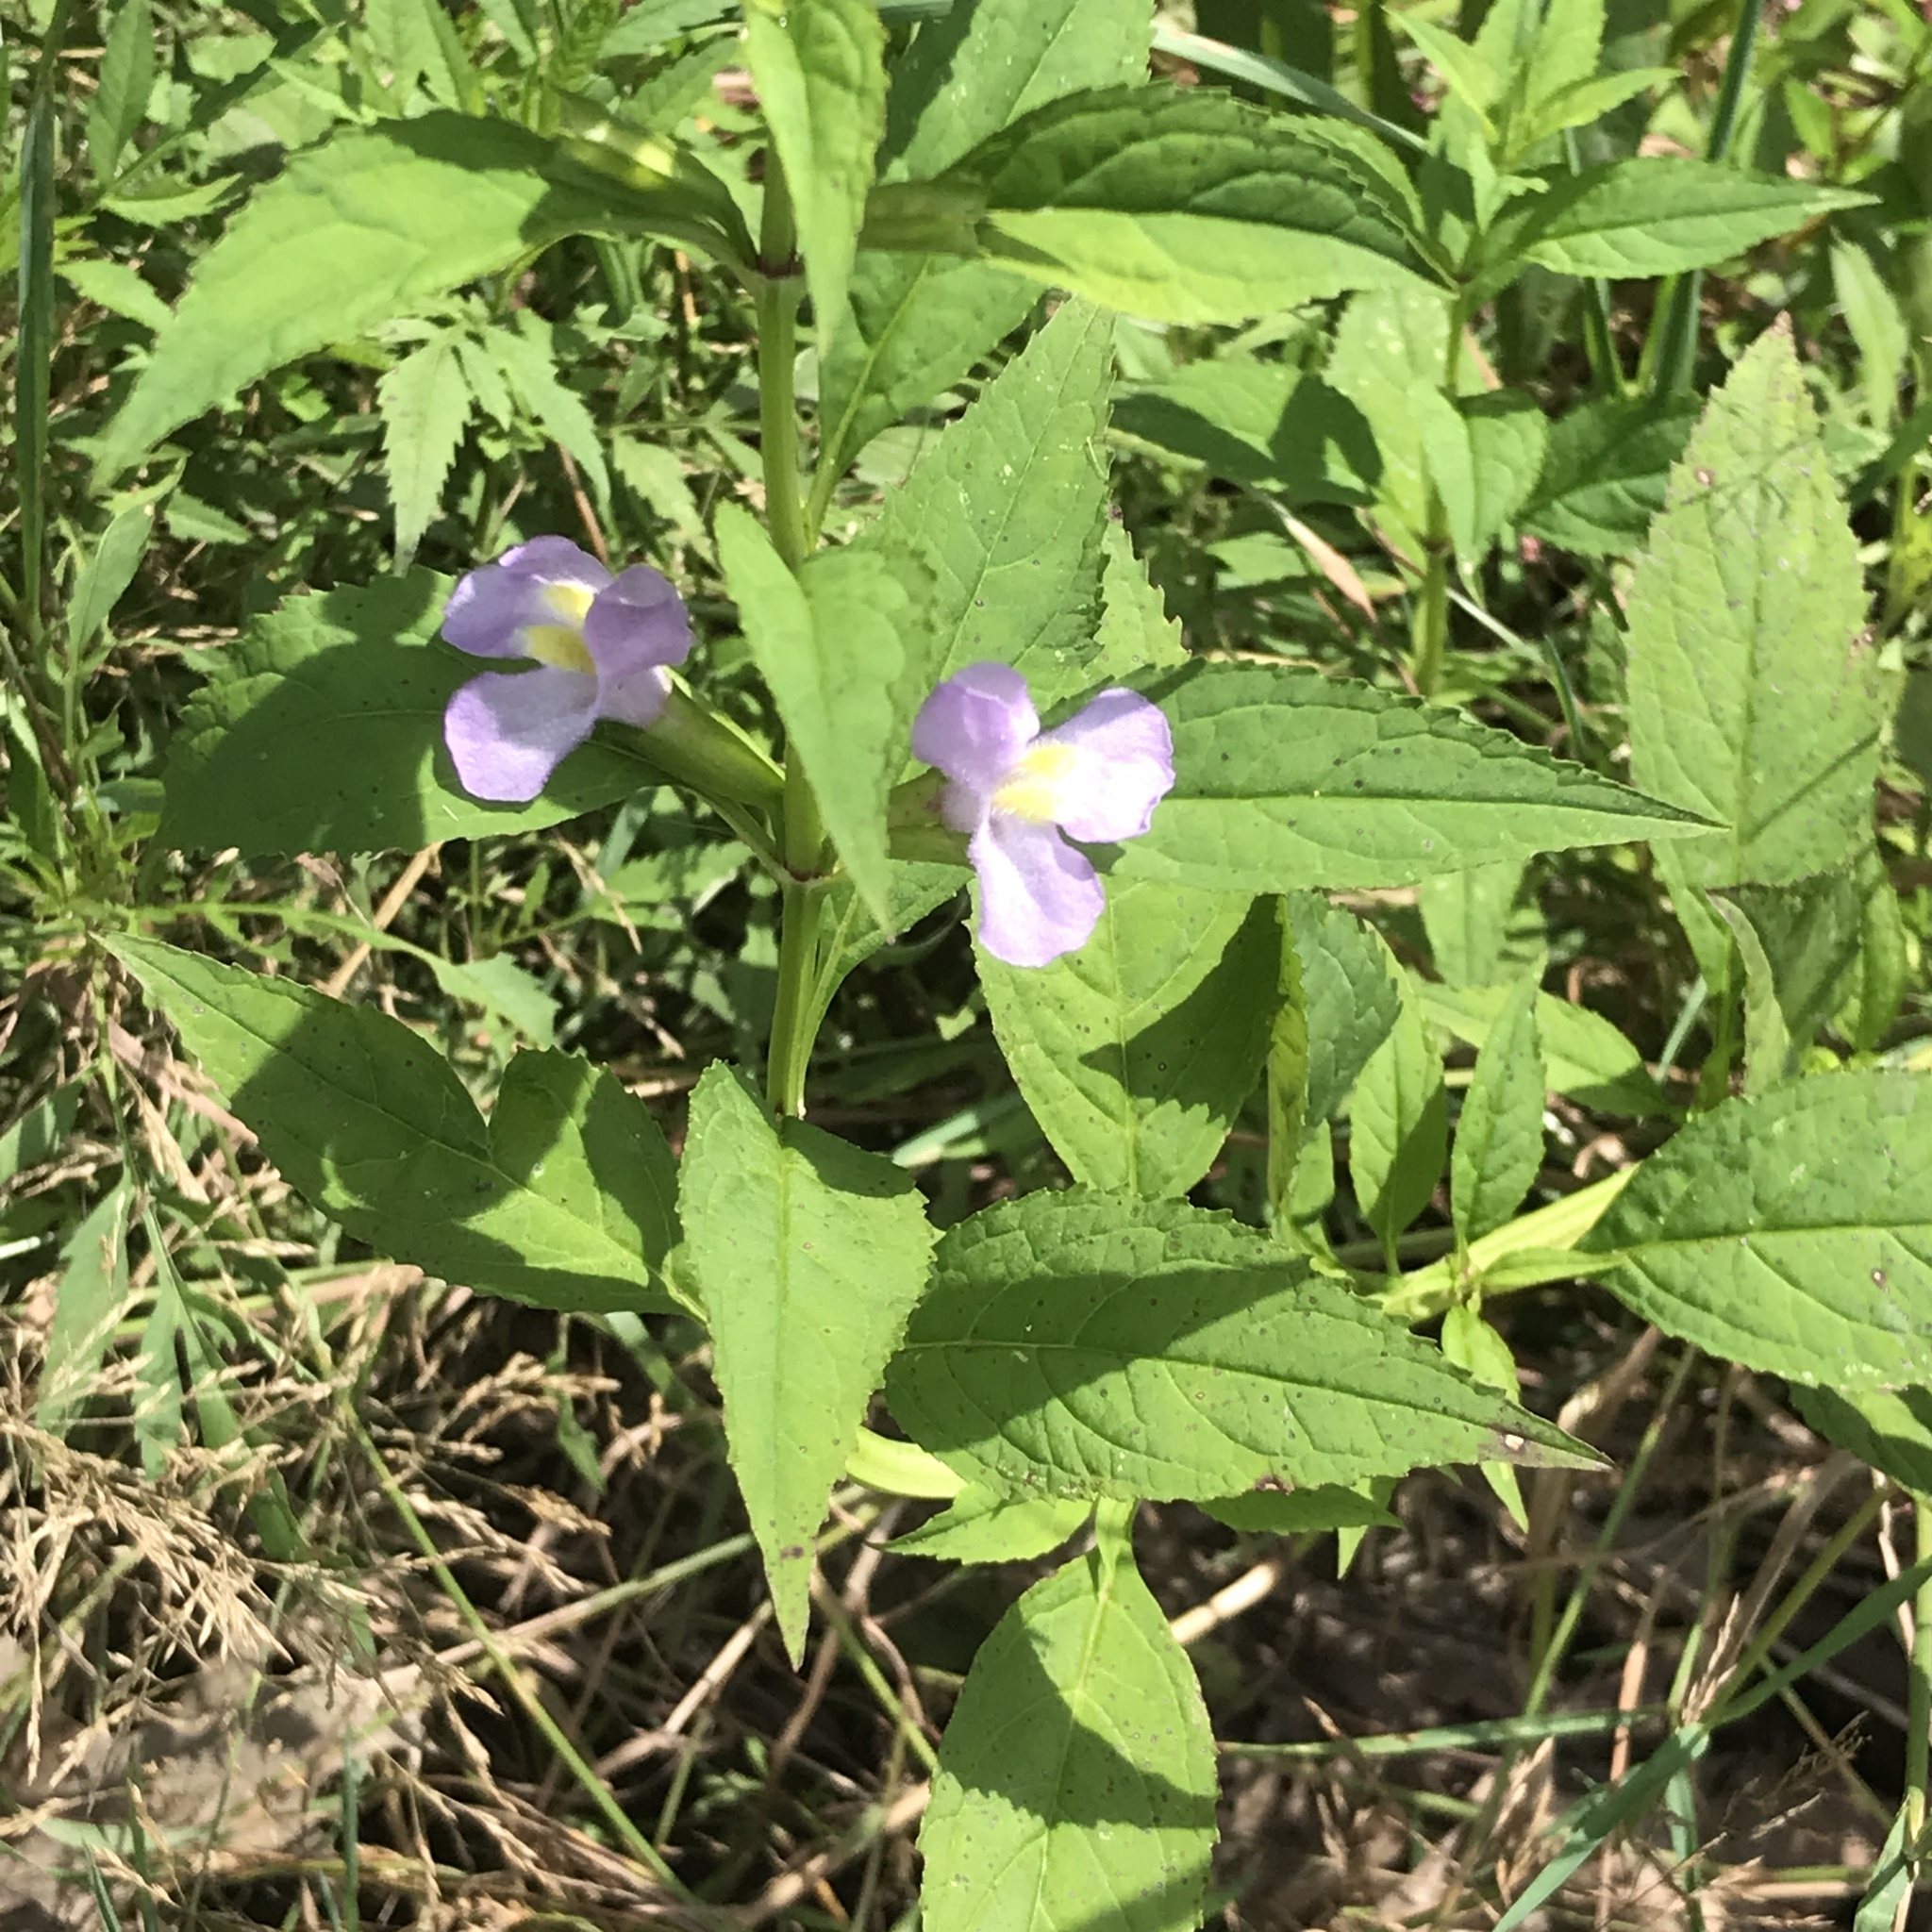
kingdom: Plantae
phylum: Tracheophyta
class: Magnoliopsida
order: Lamiales
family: Phrymaceae
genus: Mimulus
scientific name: Mimulus alatus
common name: Sharp-wing monkey-flower
